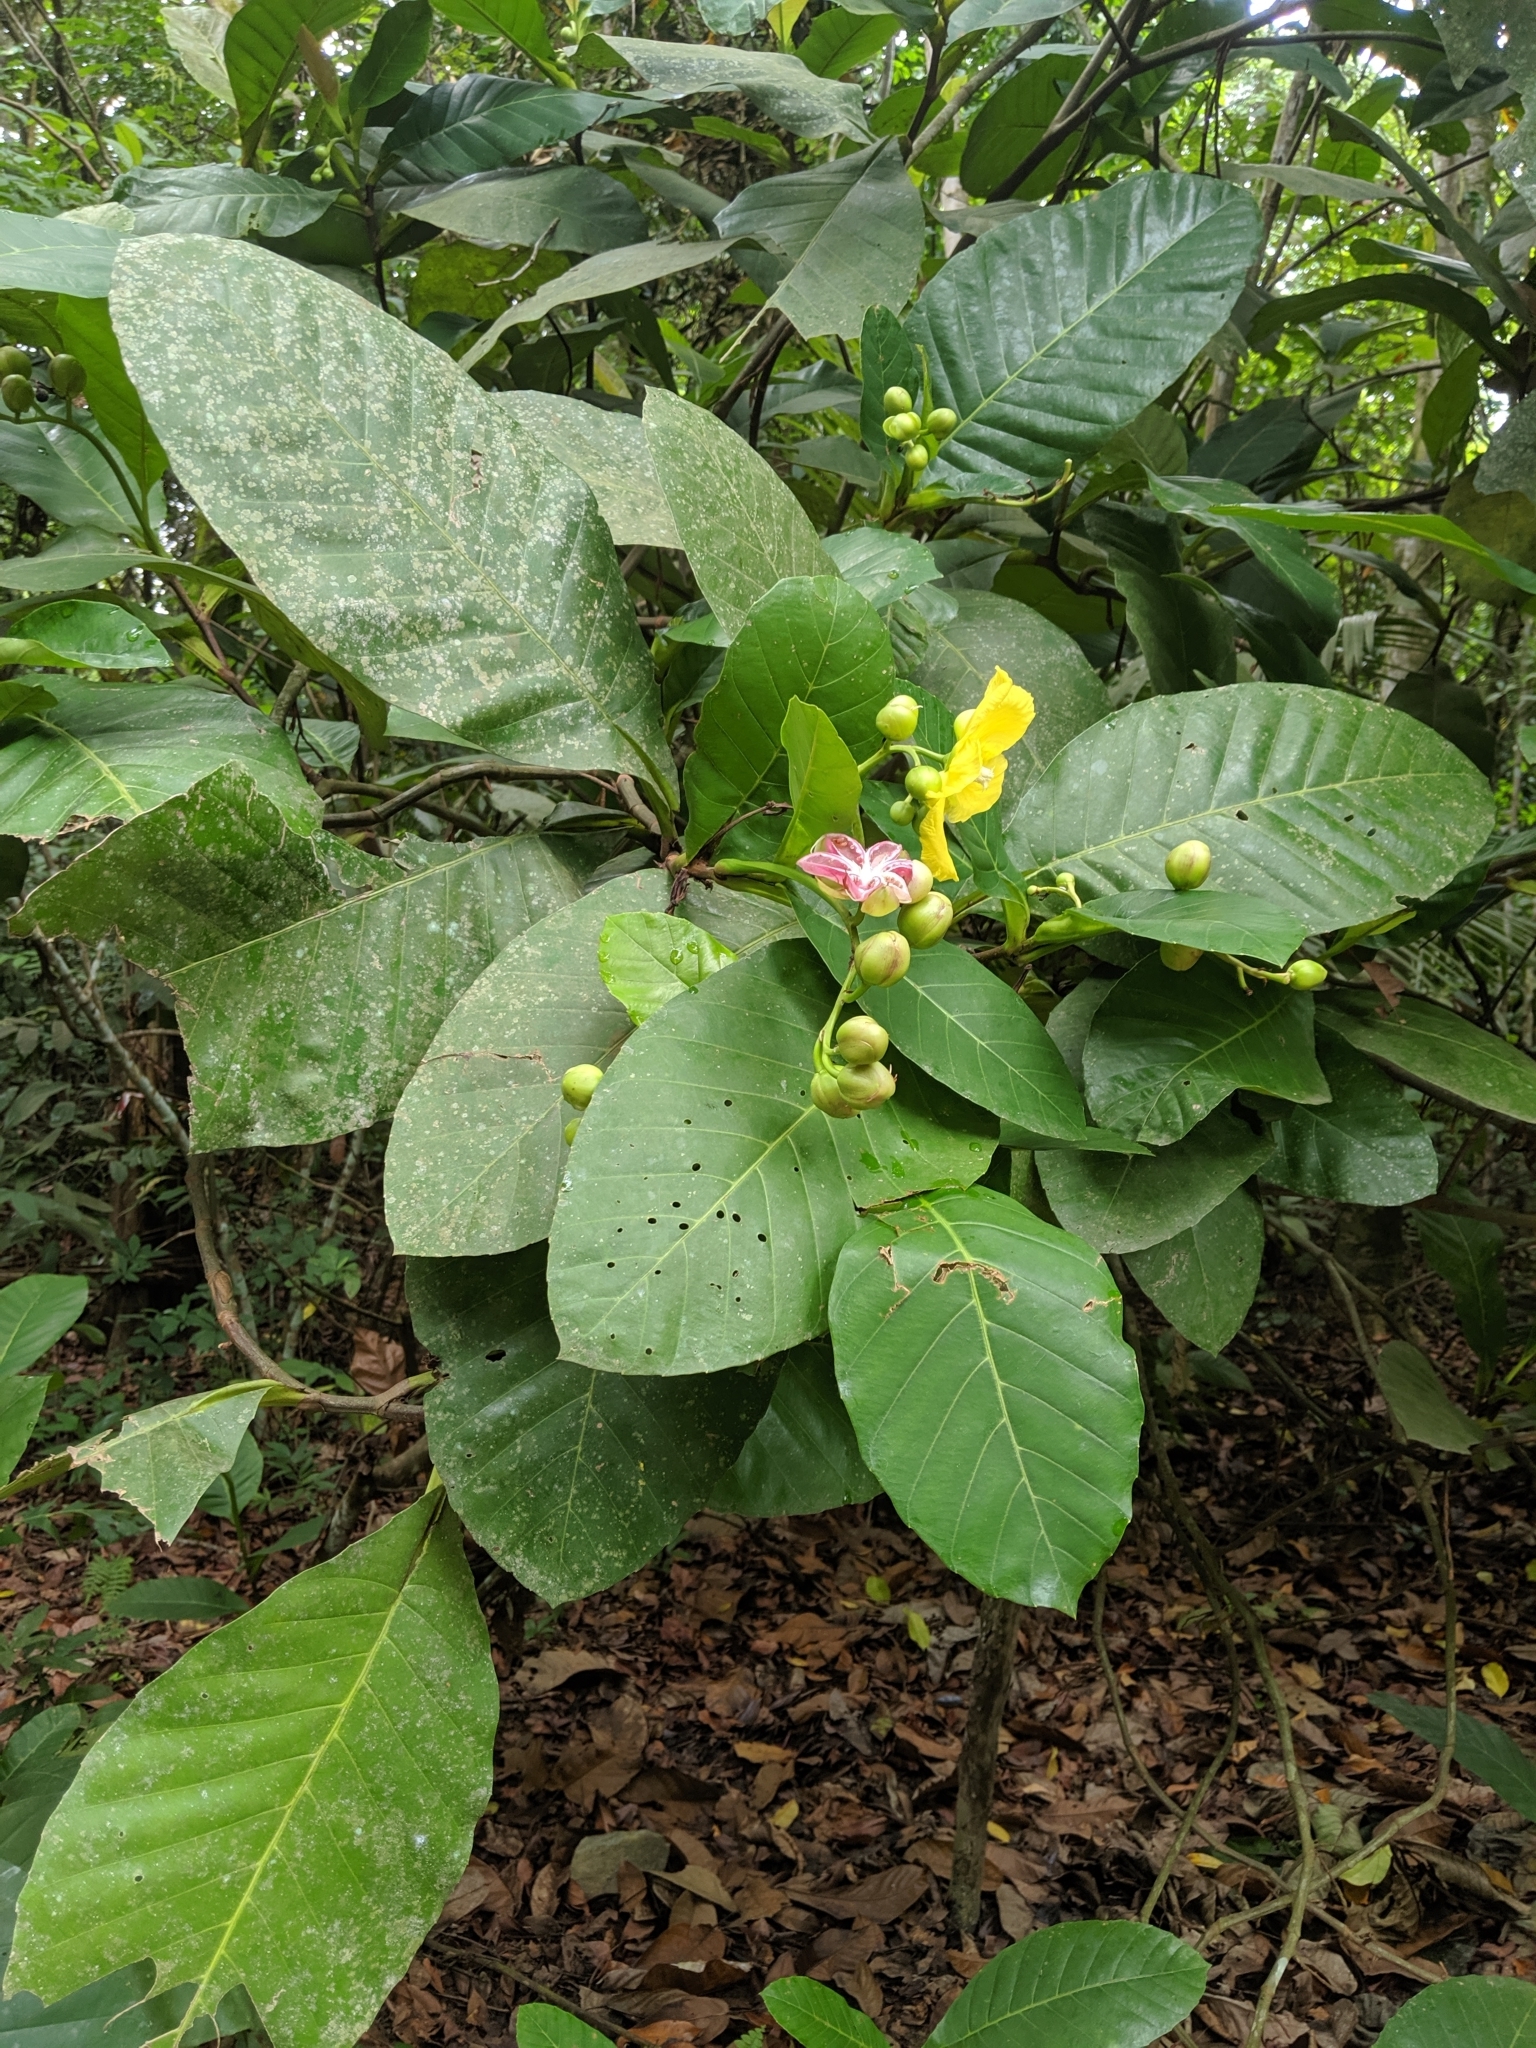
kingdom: Plantae
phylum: Tracheophyta
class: Magnoliopsida
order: Dilleniales
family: Dilleniaceae
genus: Dillenia
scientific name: Dillenia suffruticosa
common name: Shrubby dillenia
